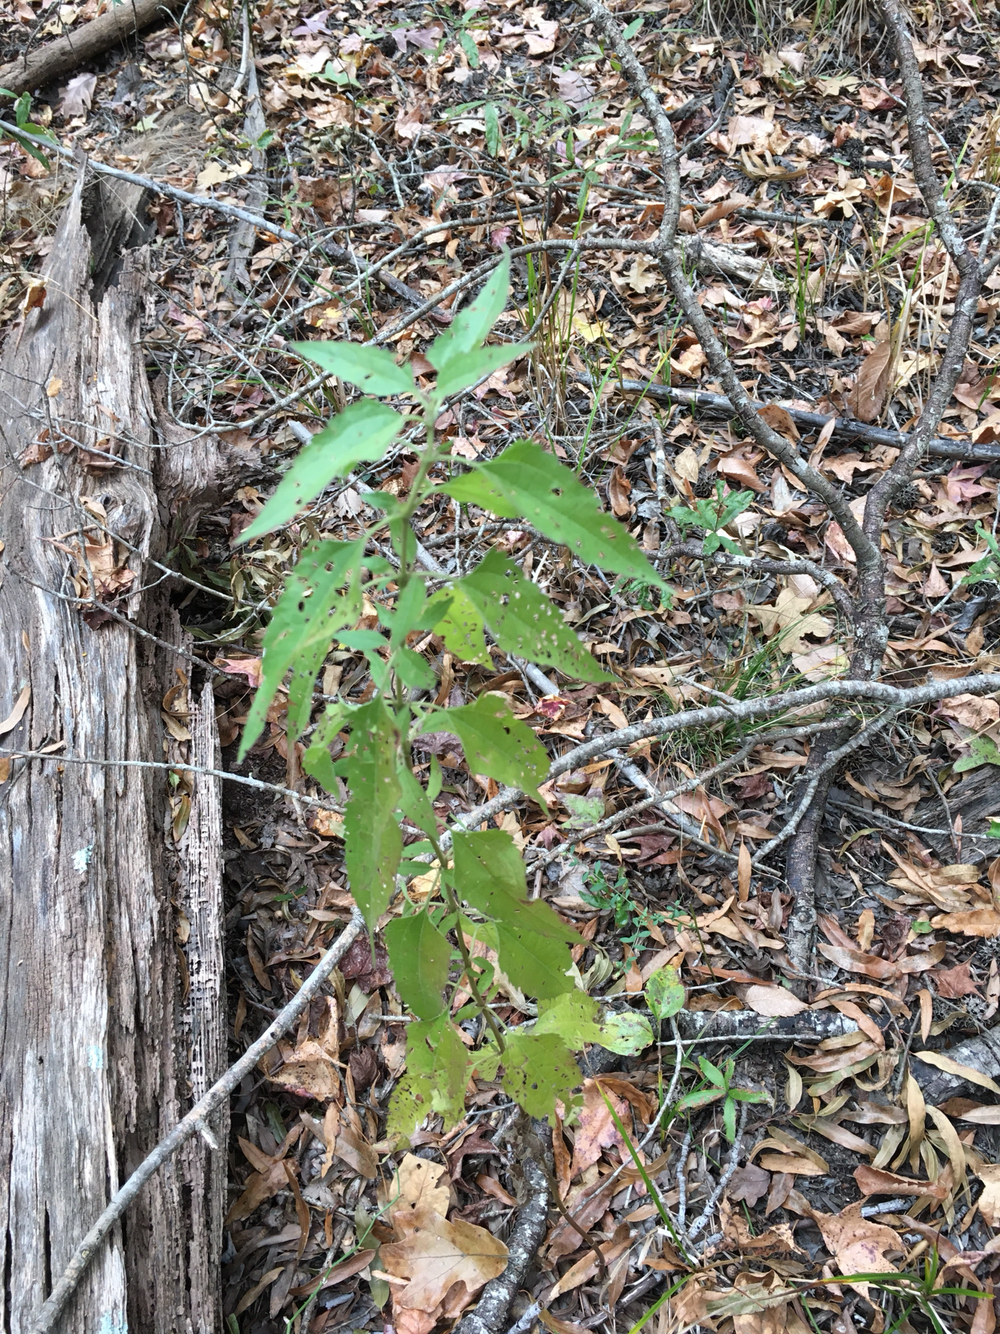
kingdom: Plantae
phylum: Tracheophyta
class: Magnoliopsida
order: Asterales
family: Asteraceae
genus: Eupatorium
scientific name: Eupatorium serotinum
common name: Late boneset
